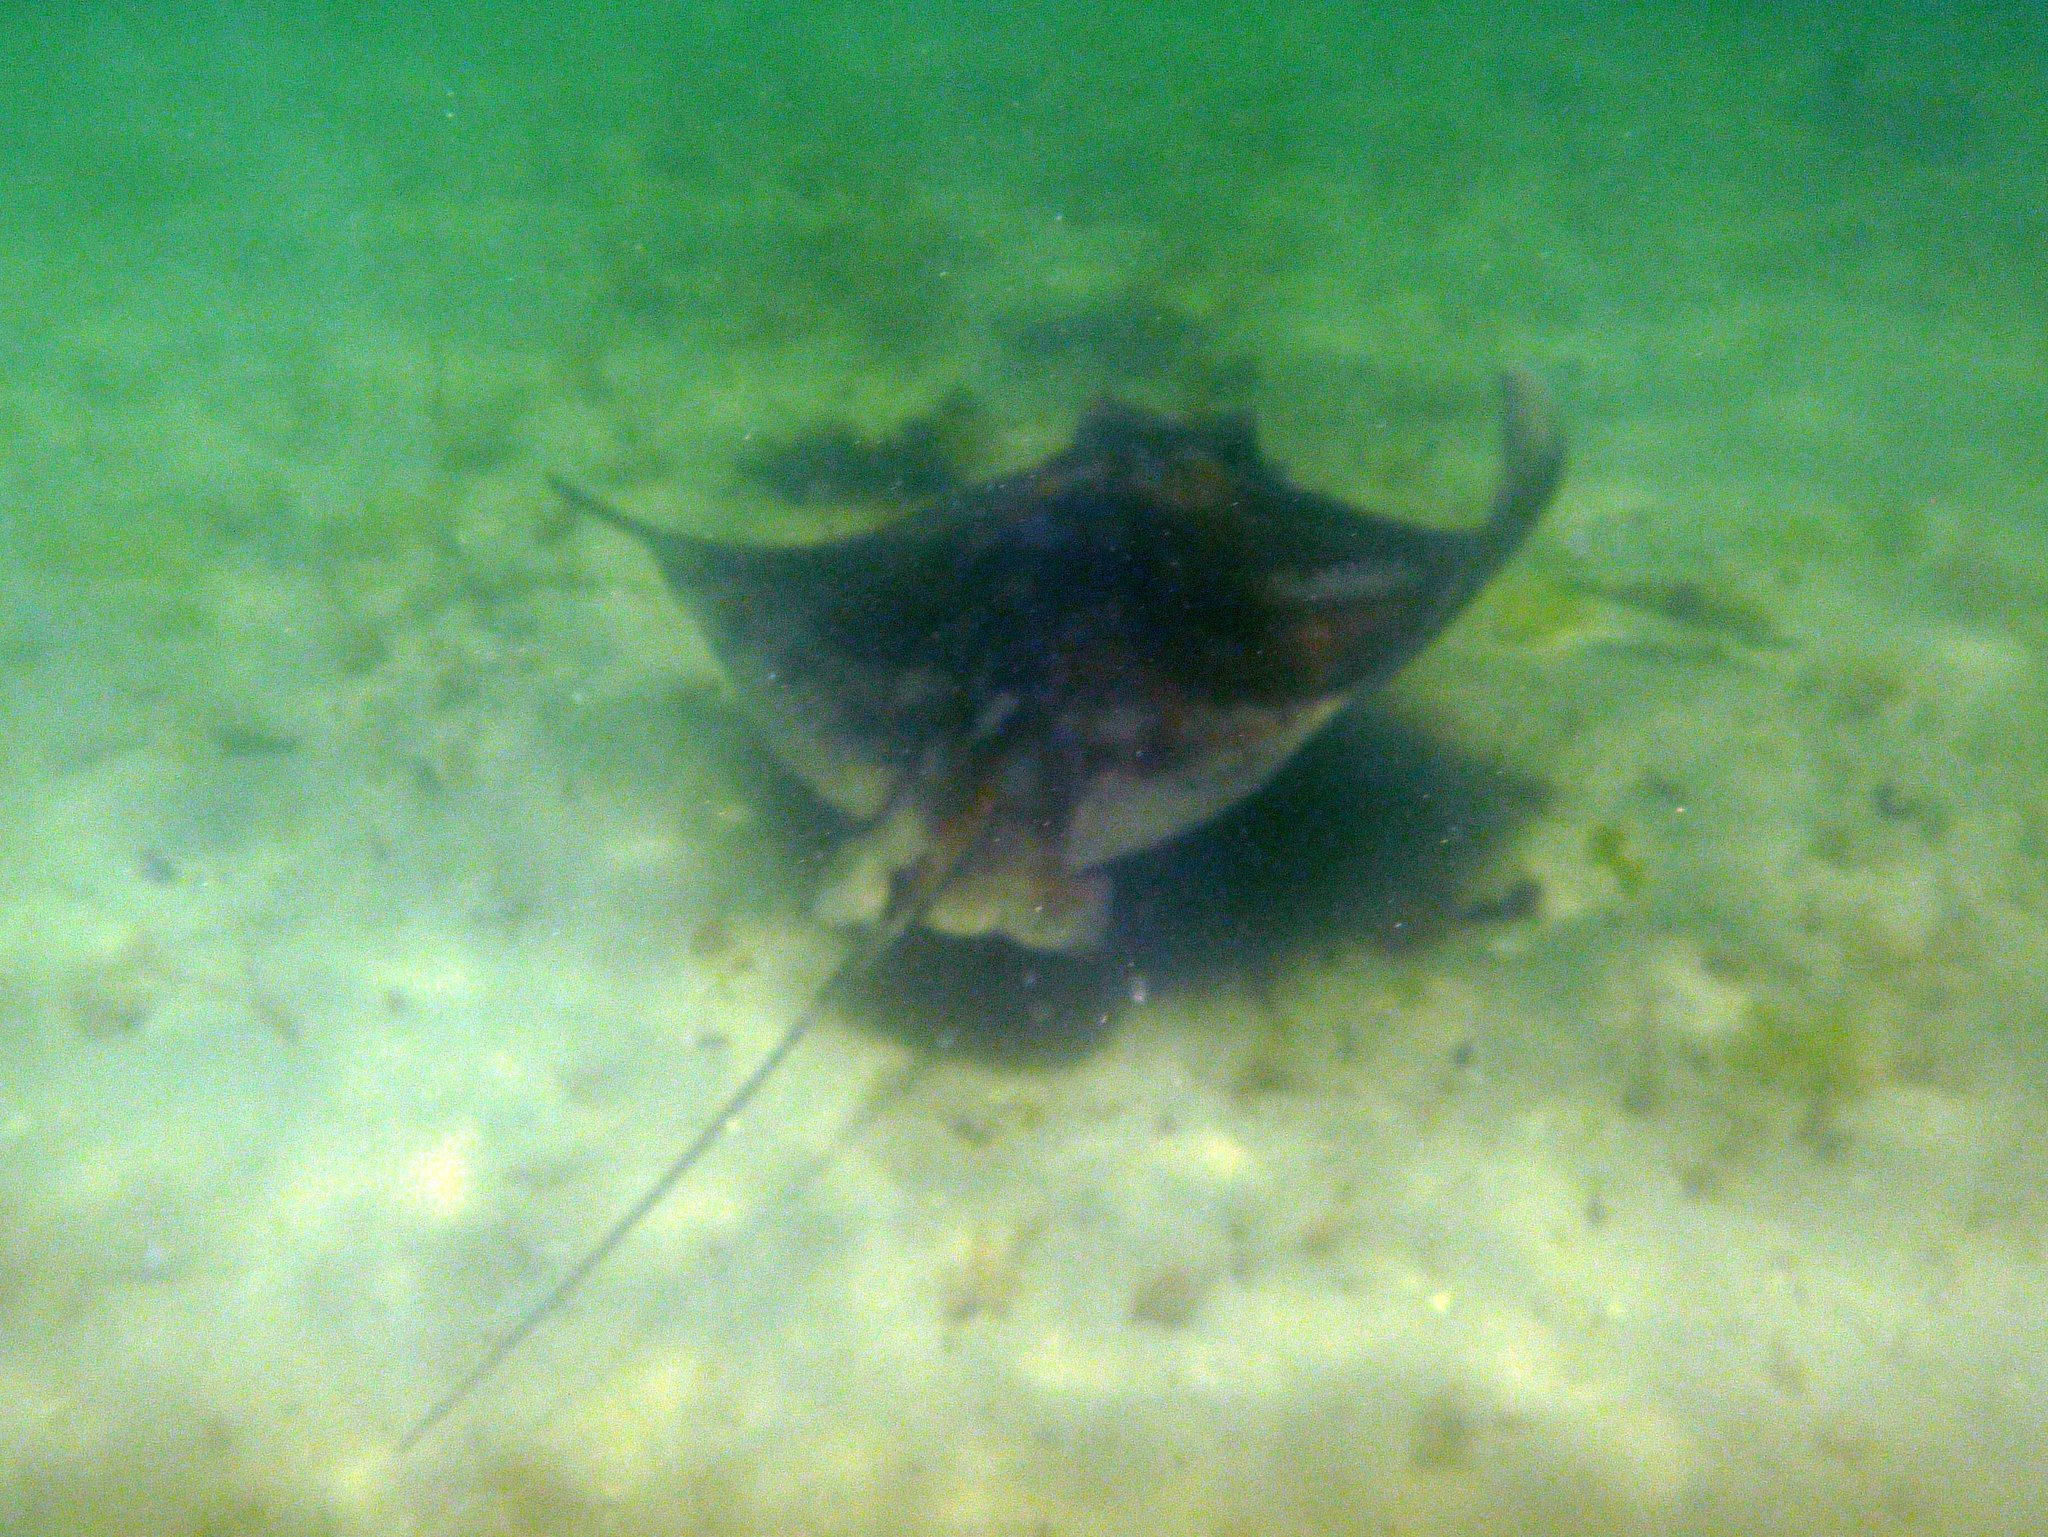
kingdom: Animalia
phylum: Chordata
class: Elasmobranchii
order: Myliobatiformes
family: Myliobatidae
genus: Myliobatis
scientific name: Myliobatis tenuicaudatus
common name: Eagle ray
